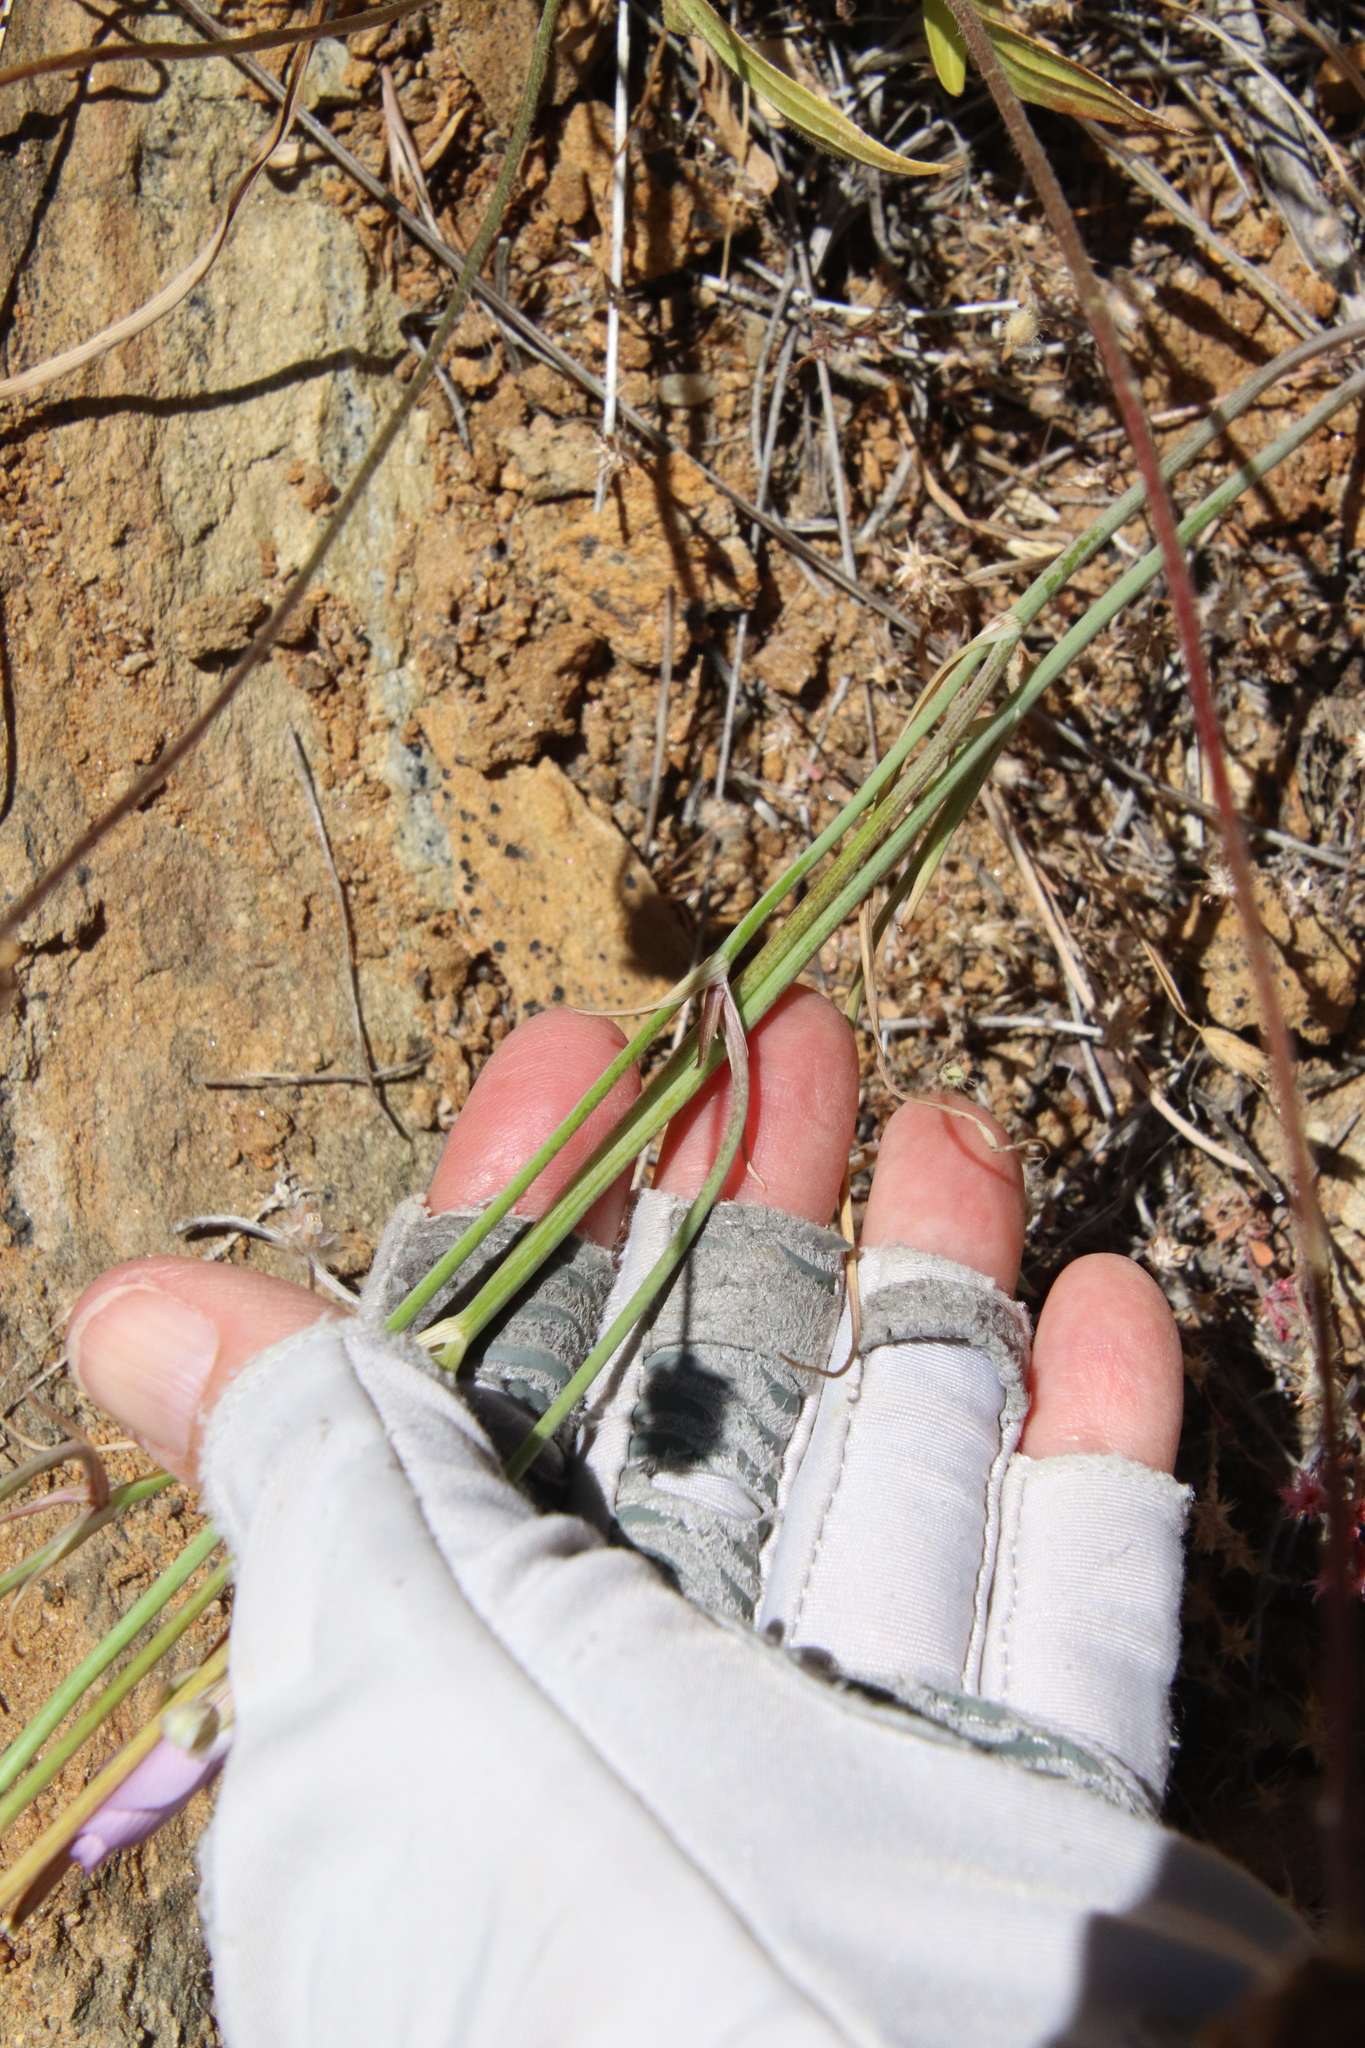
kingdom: Plantae
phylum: Tracheophyta
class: Liliopsida
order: Liliales
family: Liliaceae
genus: Calochortus
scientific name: Calochortus splendens
